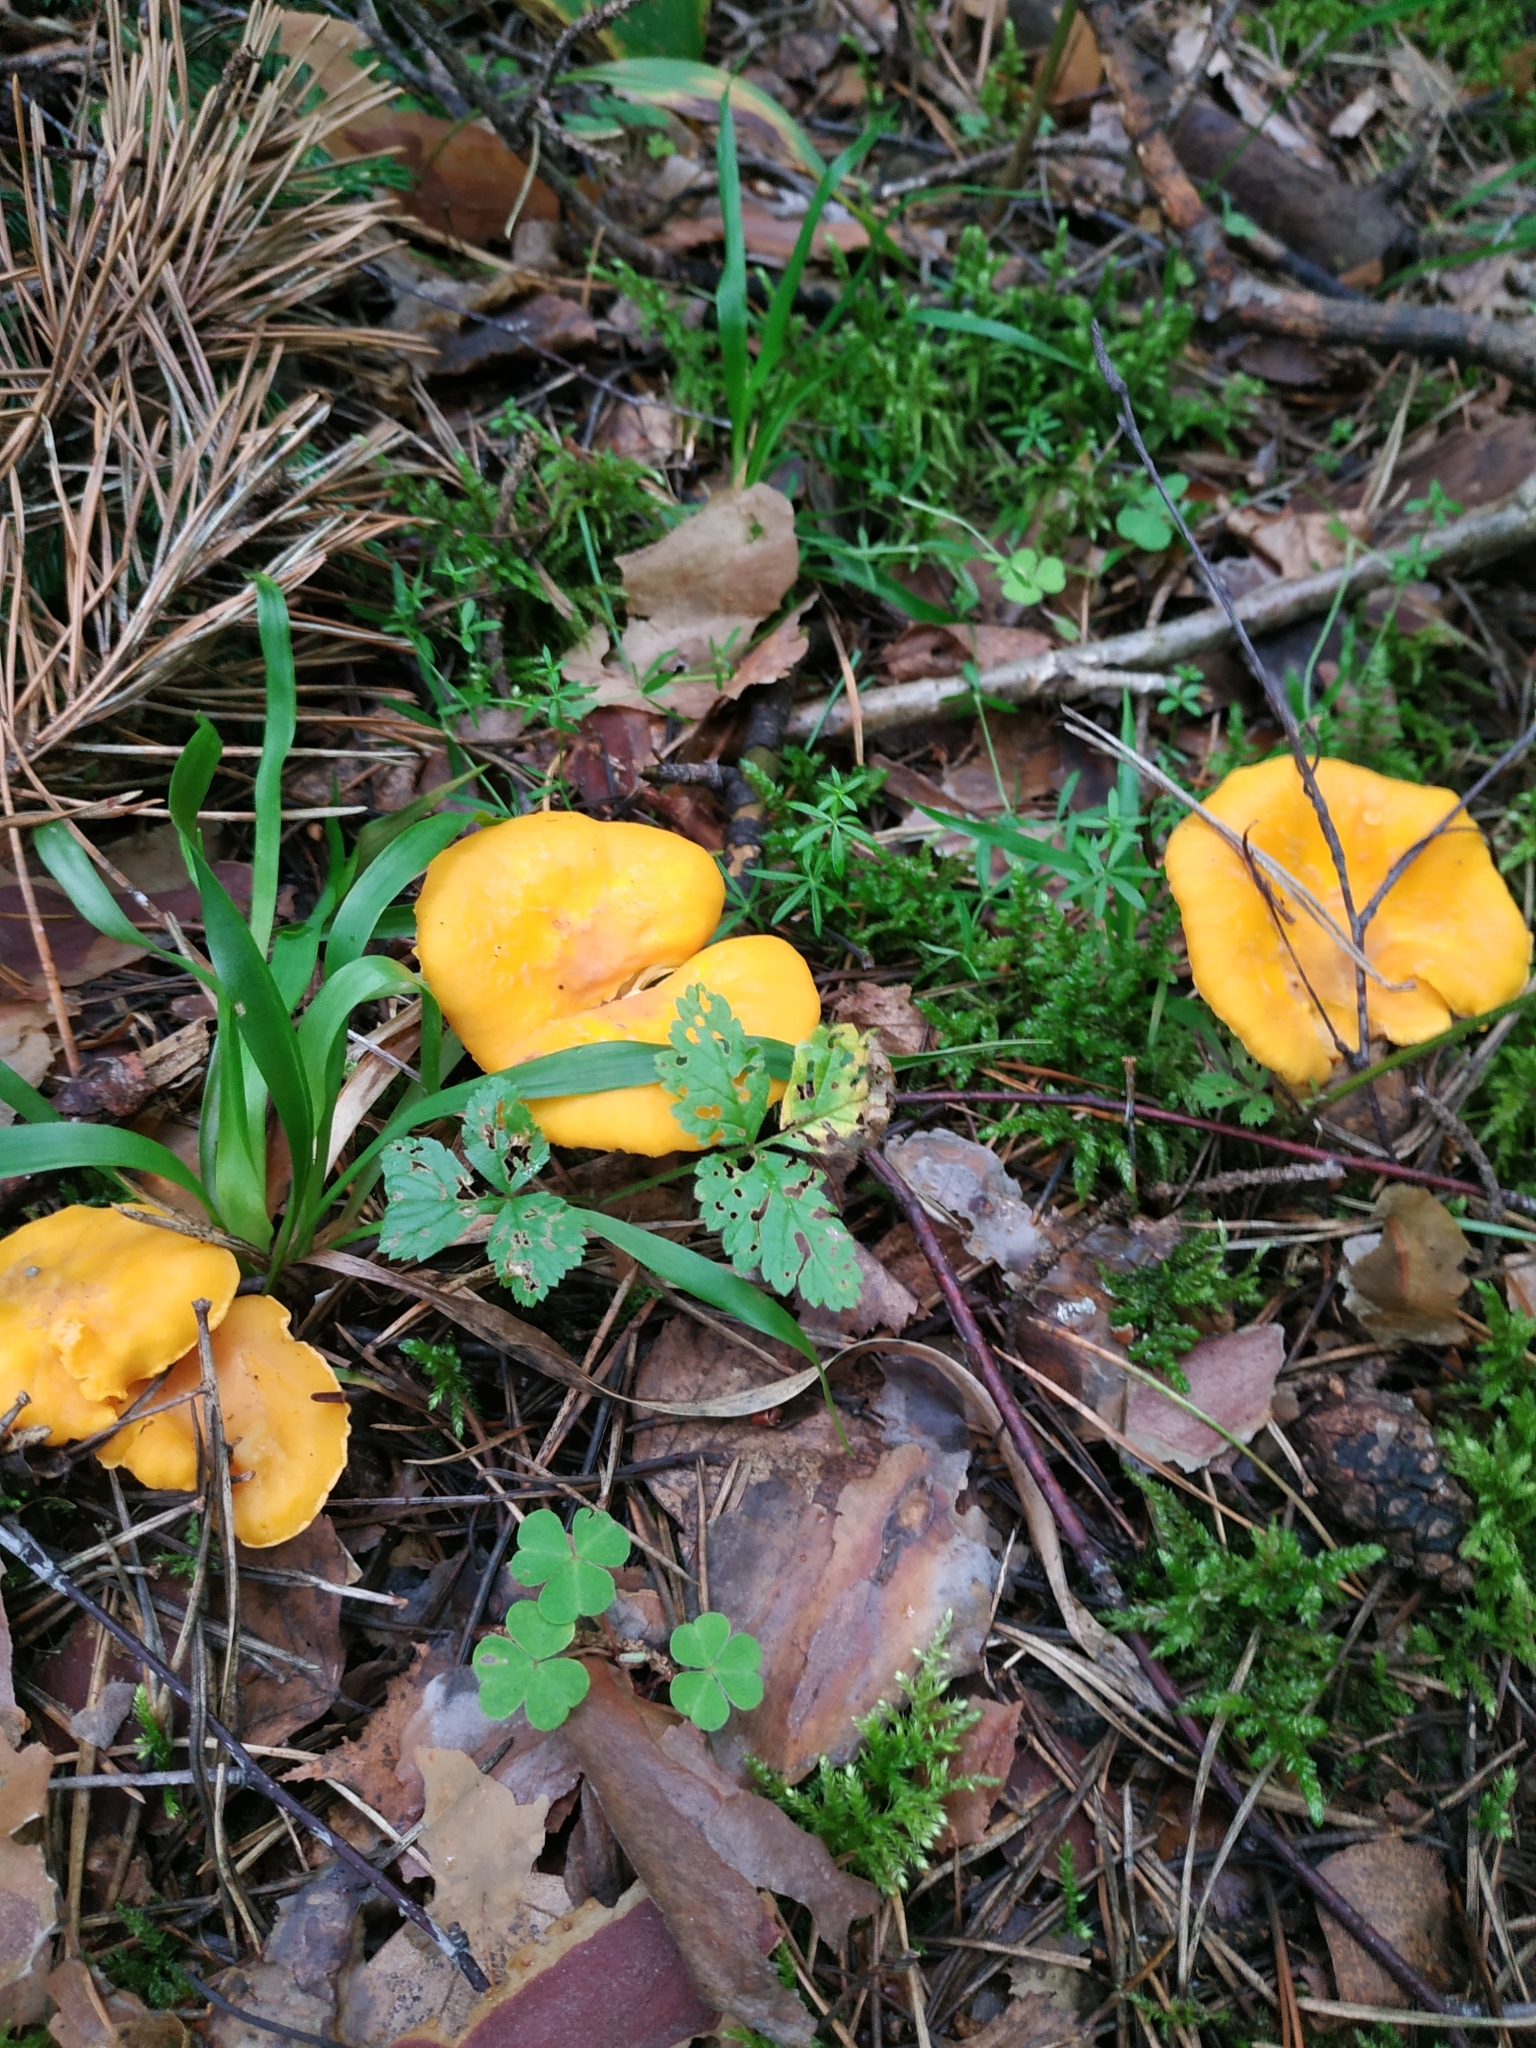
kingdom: Fungi
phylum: Basidiomycota
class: Agaricomycetes
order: Cantharellales
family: Hydnaceae
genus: Cantharellus
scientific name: Cantharellus cibarius
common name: Chanterelle
